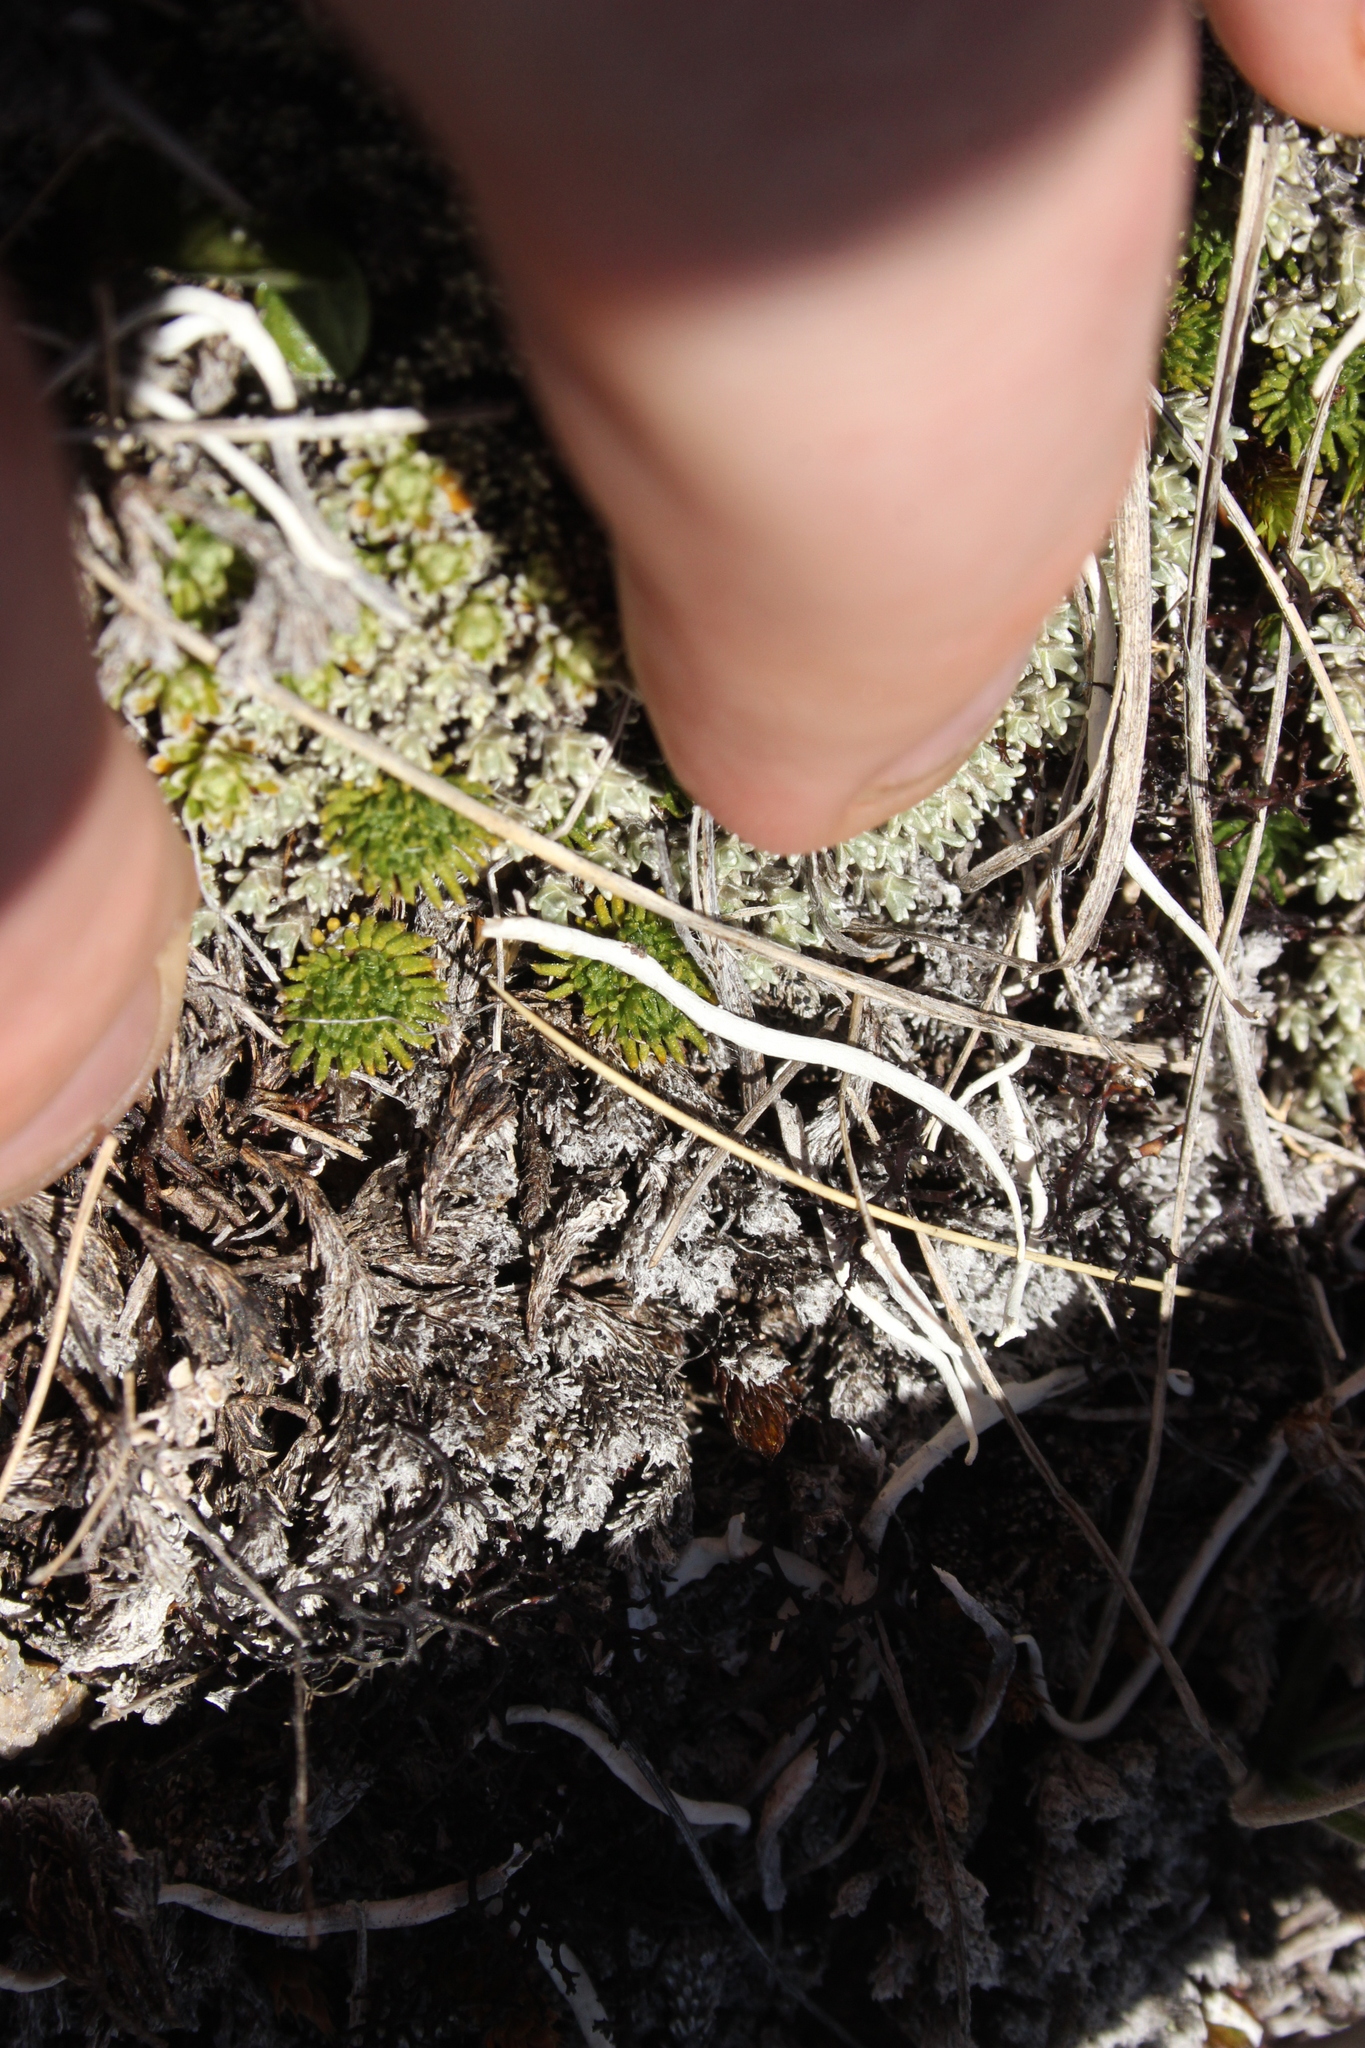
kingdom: Plantae
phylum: Tracheophyta
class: Magnoliopsida
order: Asterales
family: Asteraceae
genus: Leptinella
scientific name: Leptinella goyenii
